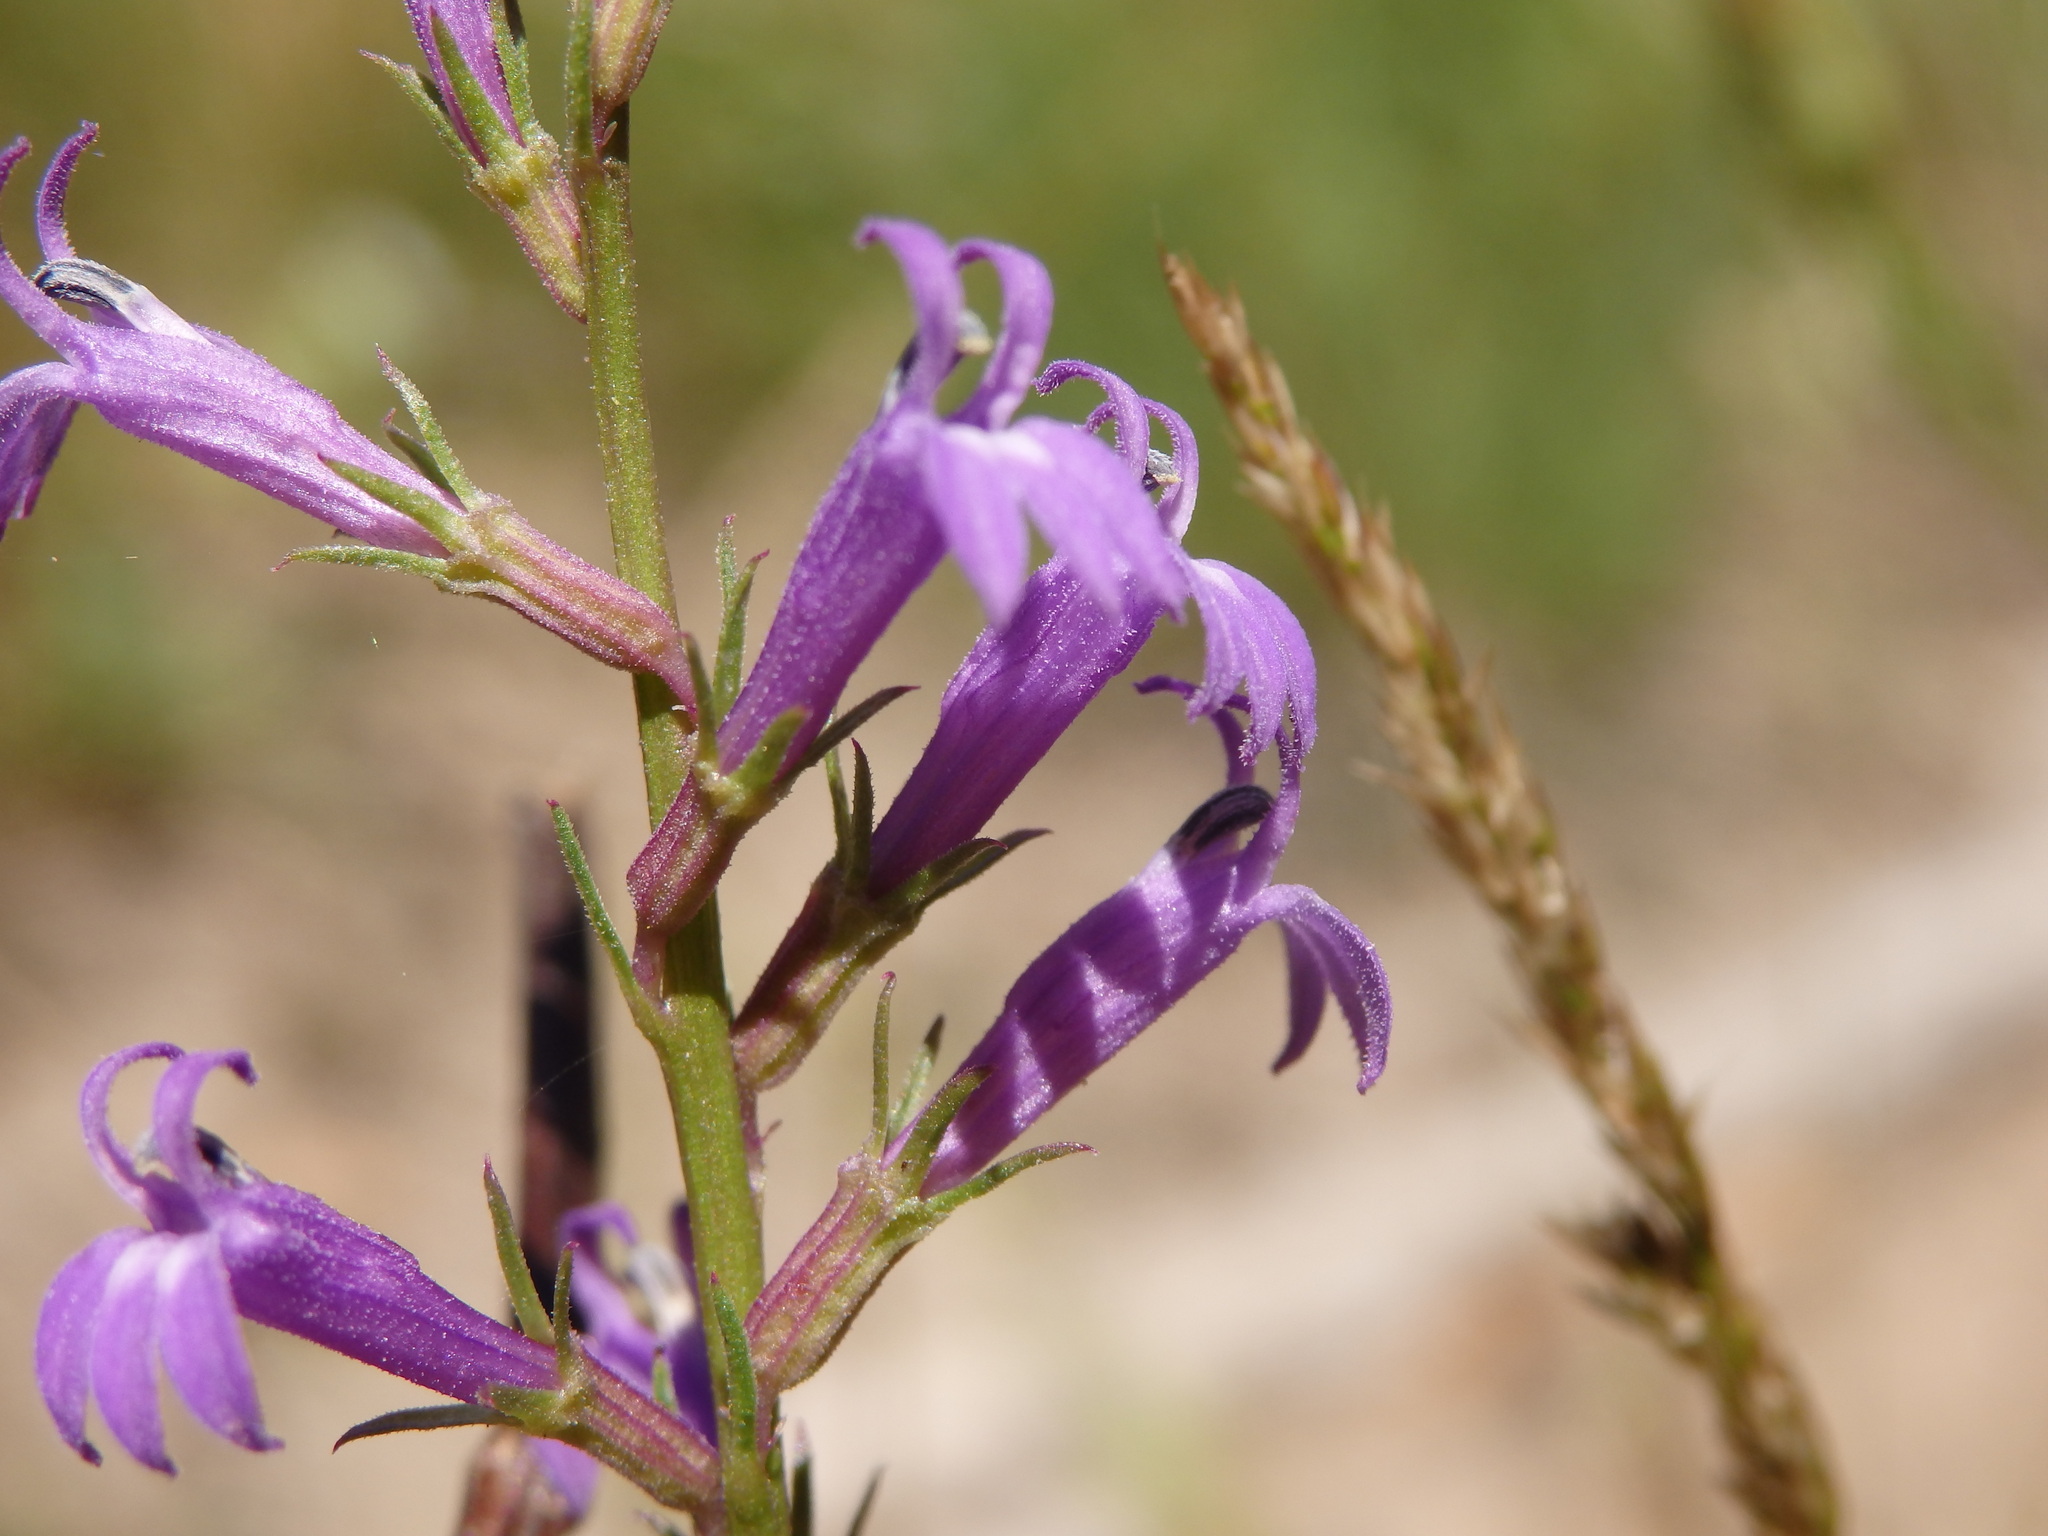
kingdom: Plantae
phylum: Tracheophyta
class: Magnoliopsida
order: Asterales
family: Campanulaceae
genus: Lobelia
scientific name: Lobelia urens
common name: Heath lobelia
